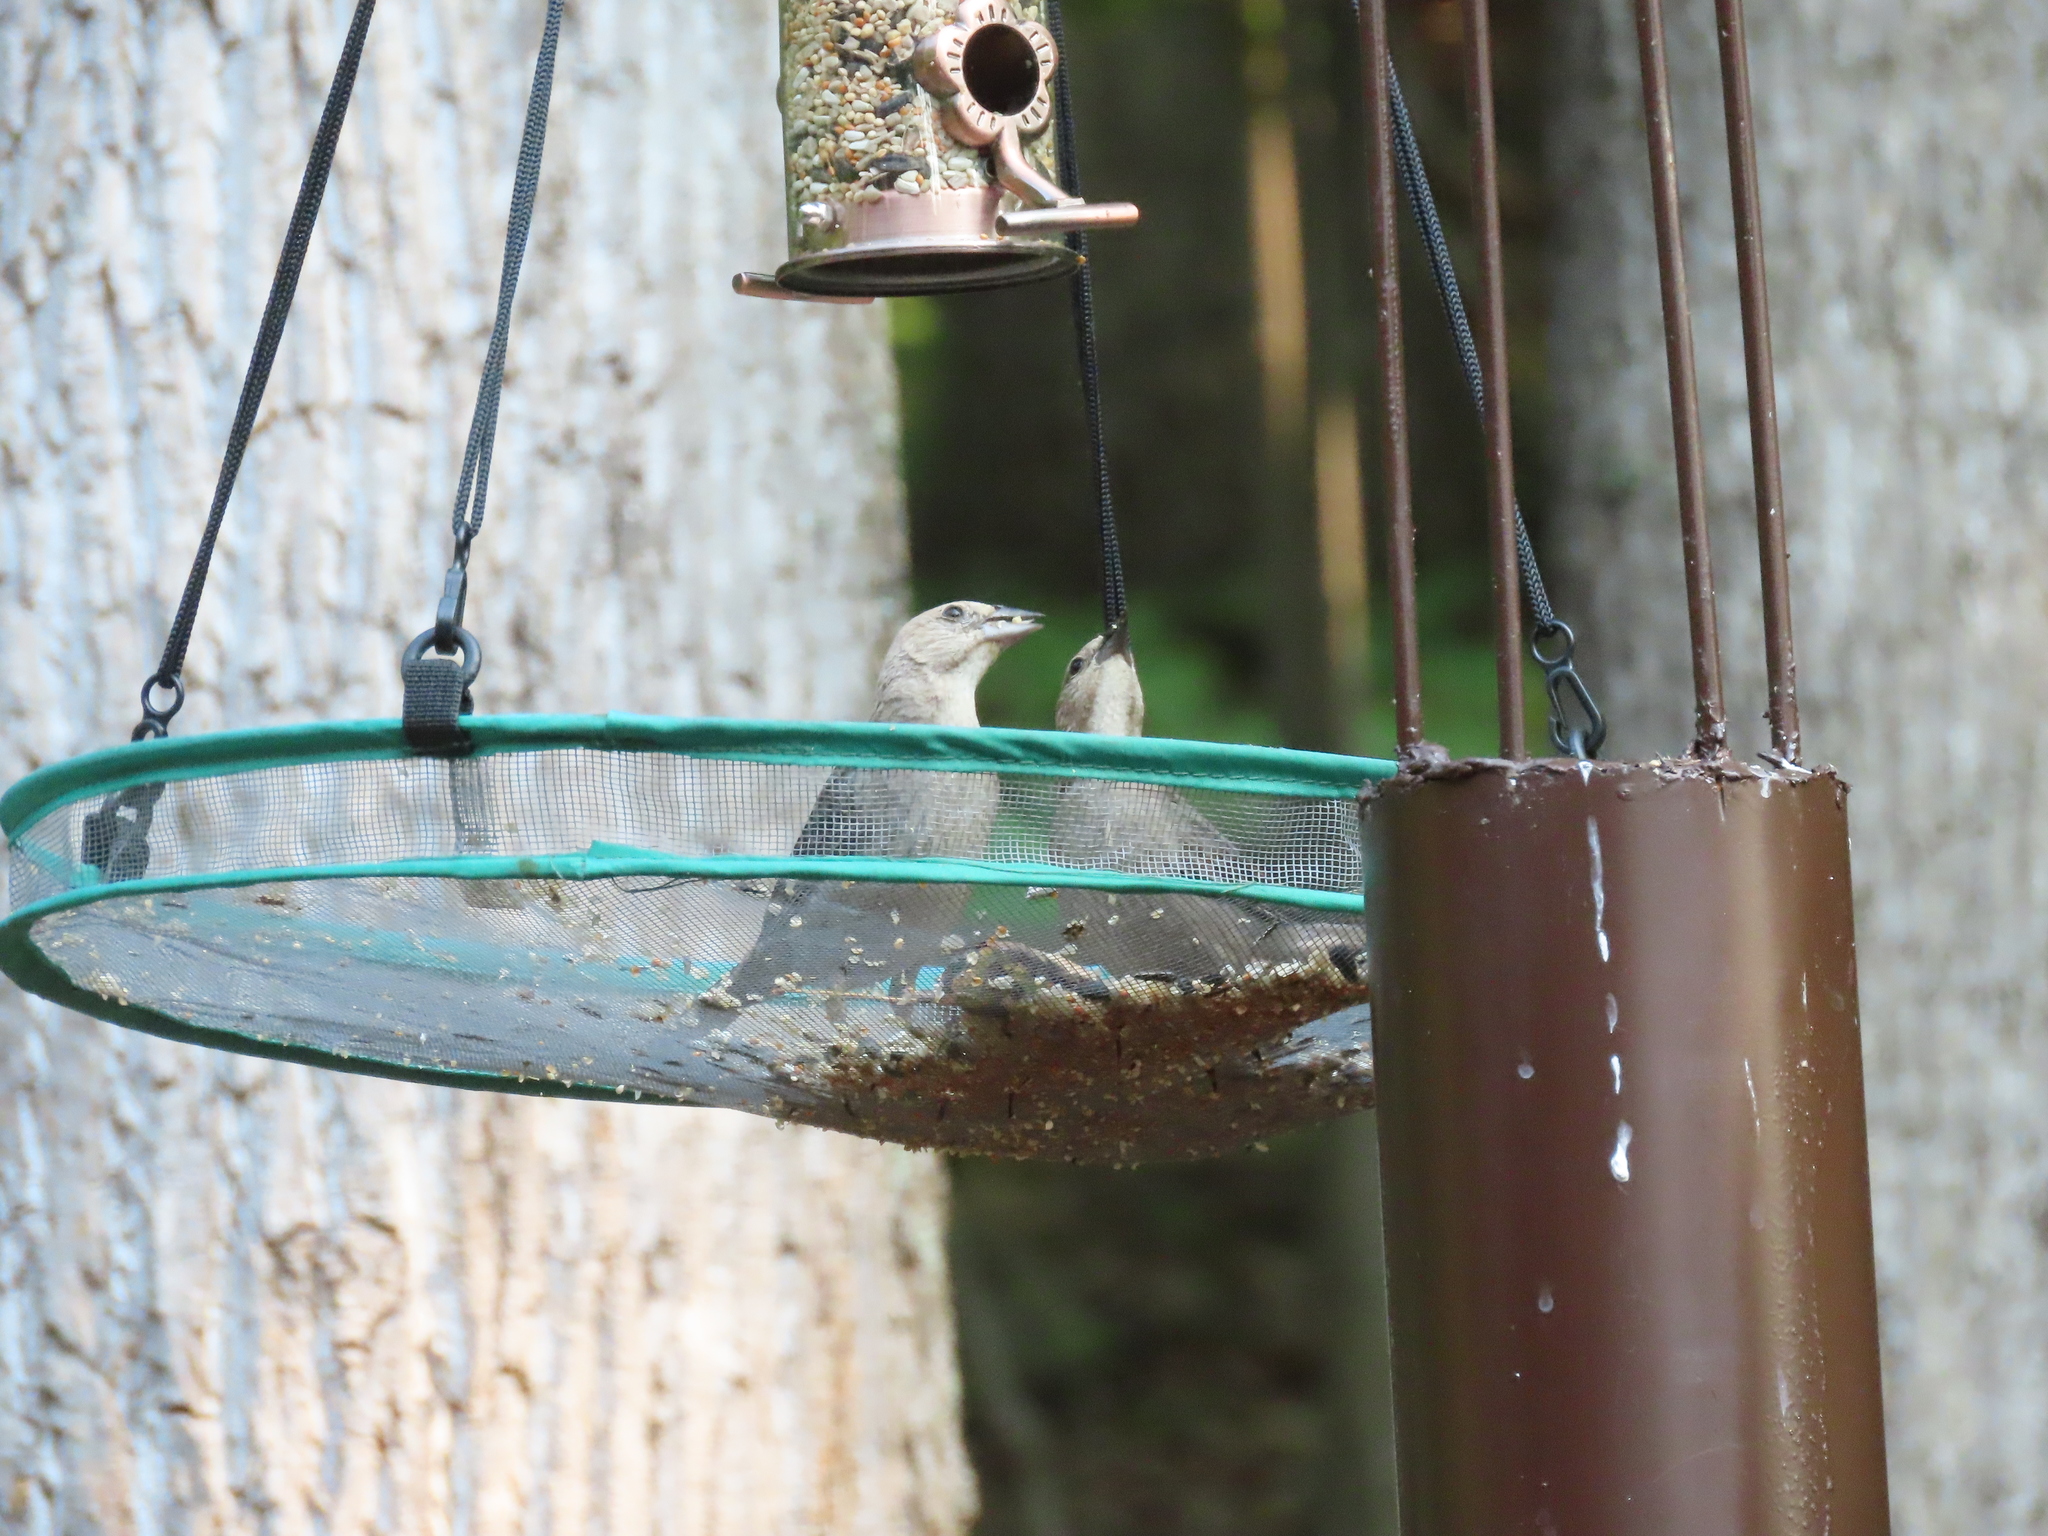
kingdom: Animalia
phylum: Chordata
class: Aves
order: Passeriformes
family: Icteridae
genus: Molothrus
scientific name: Molothrus ater
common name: Brown-headed cowbird
